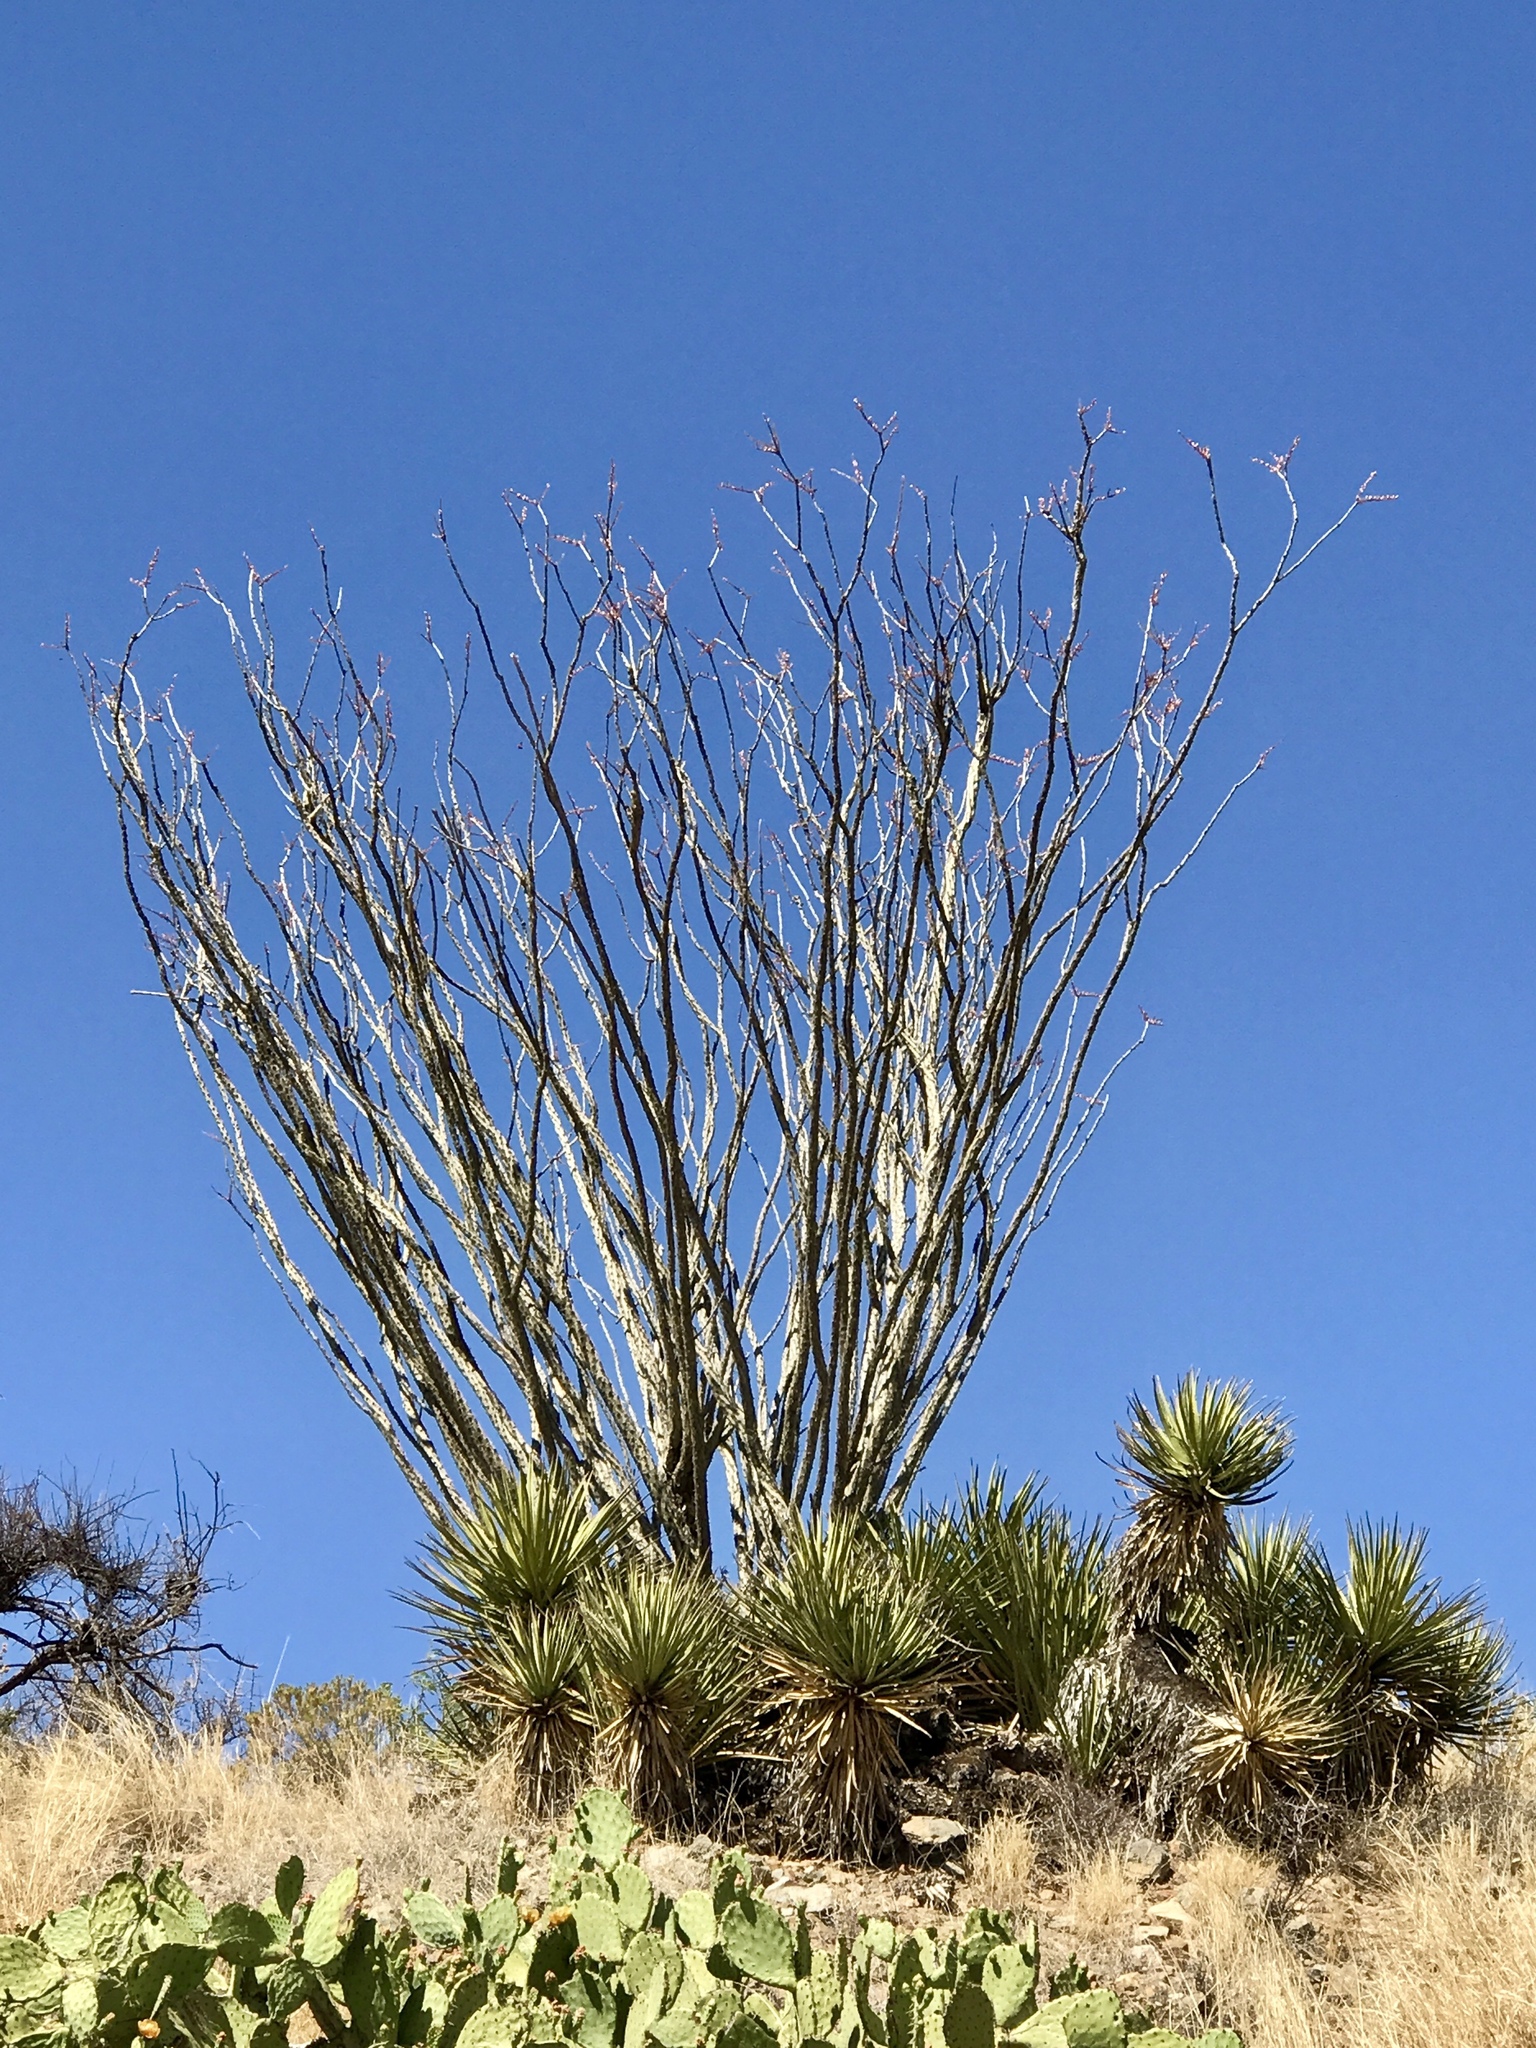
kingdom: Plantae
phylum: Tracheophyta
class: Magnoliopsida
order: Ericales
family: Fouquieriaceae
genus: Fouquieria
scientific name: Fouquieria splendens
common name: Vine-cactus
